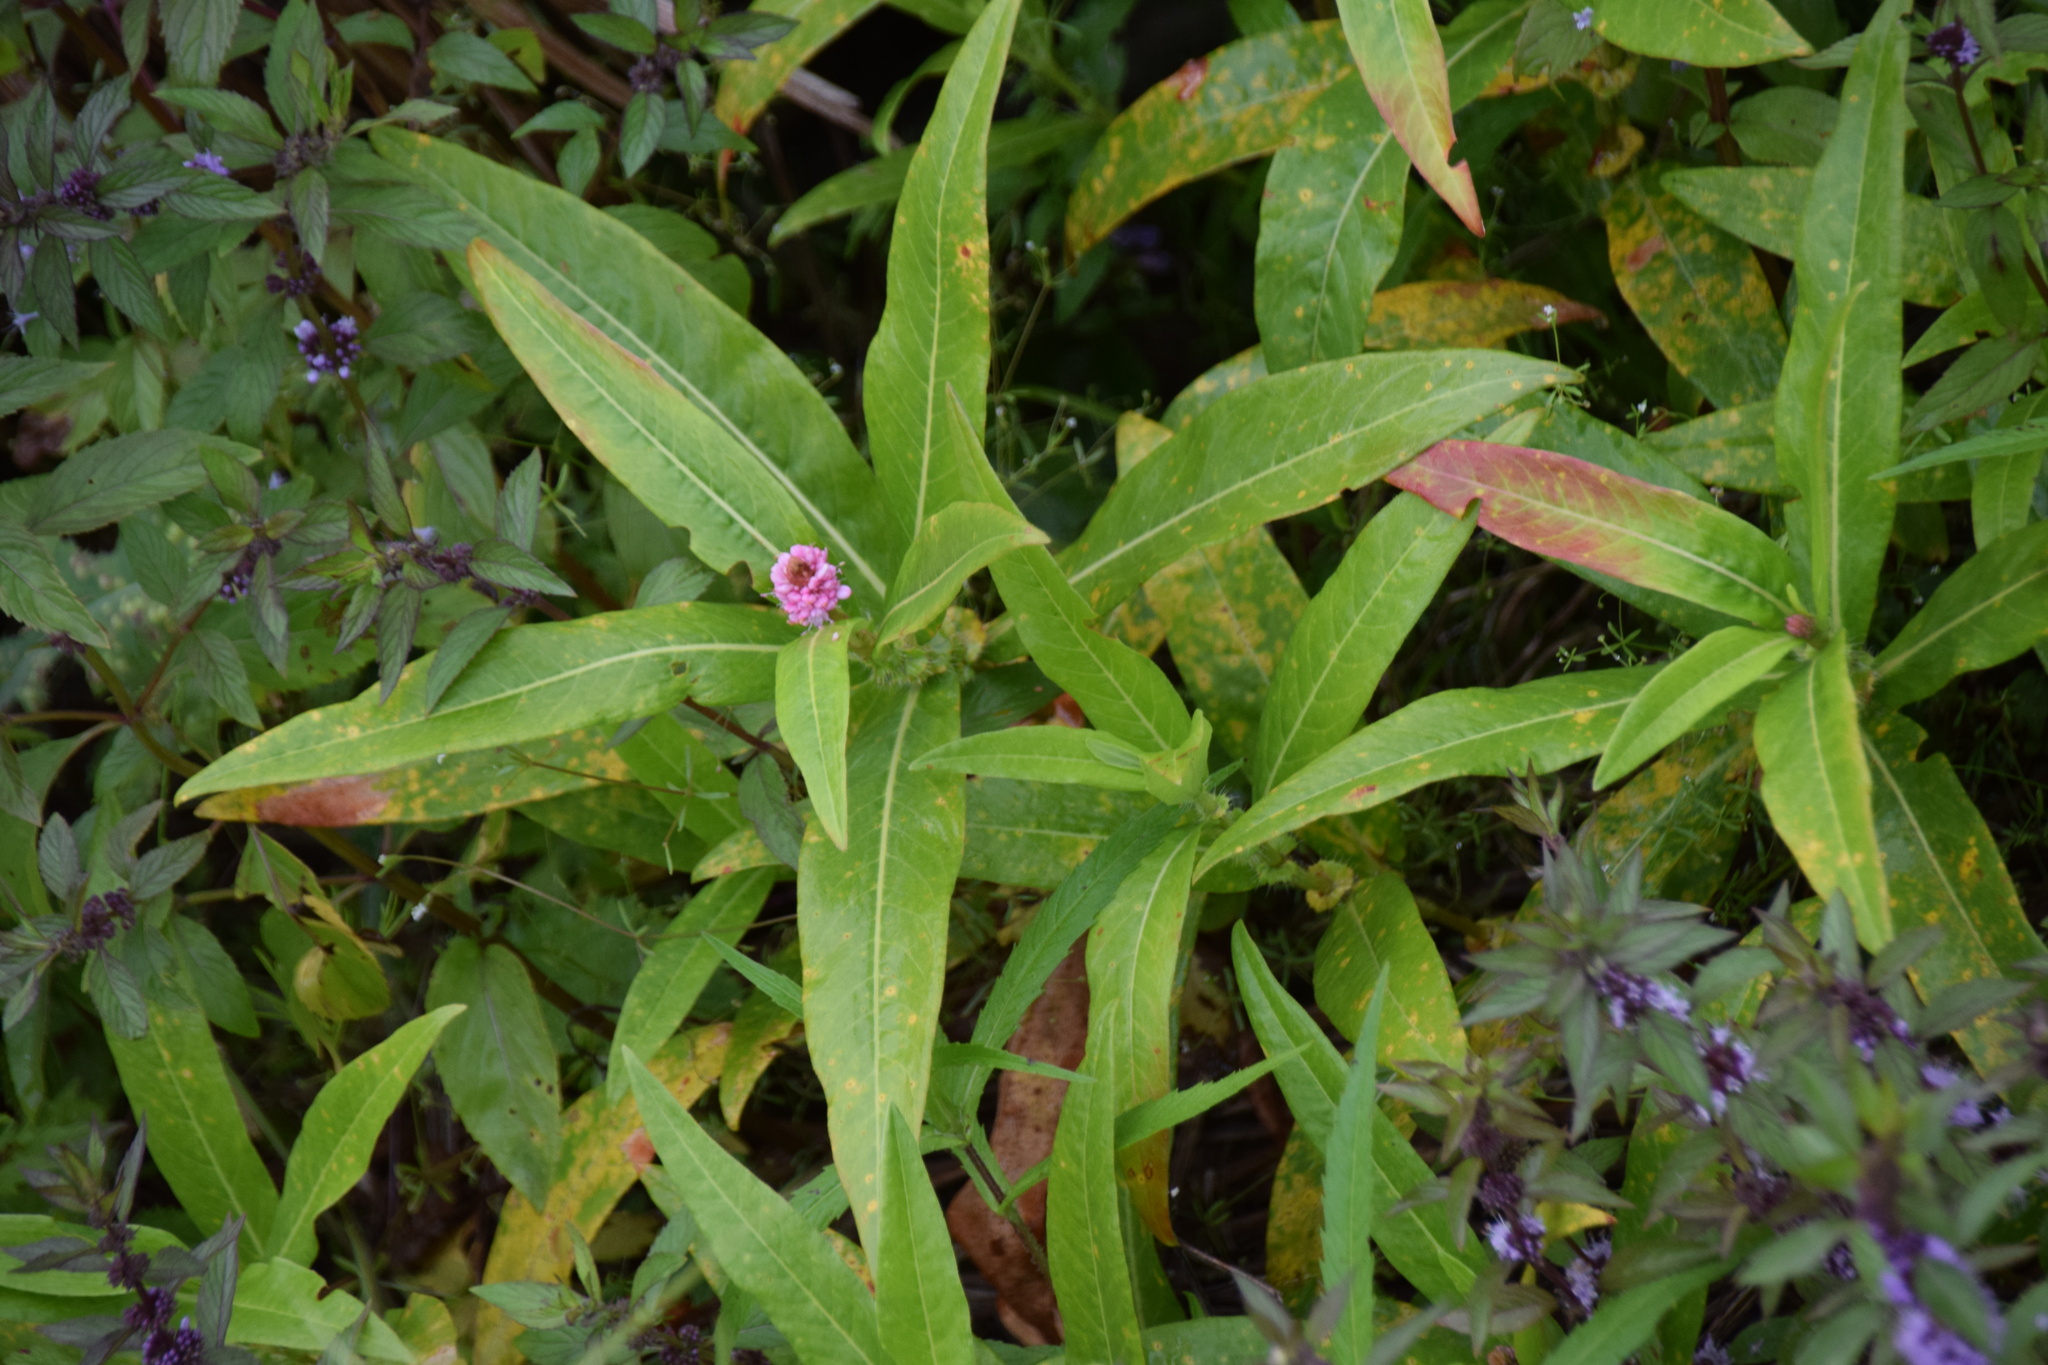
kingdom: Plantae
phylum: Tracheophyta
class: Magnoliopsida
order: Caryophyllales
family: Polygonaceae
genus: Persicaria
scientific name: Persicaria amphibia
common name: Amphibious bistort
